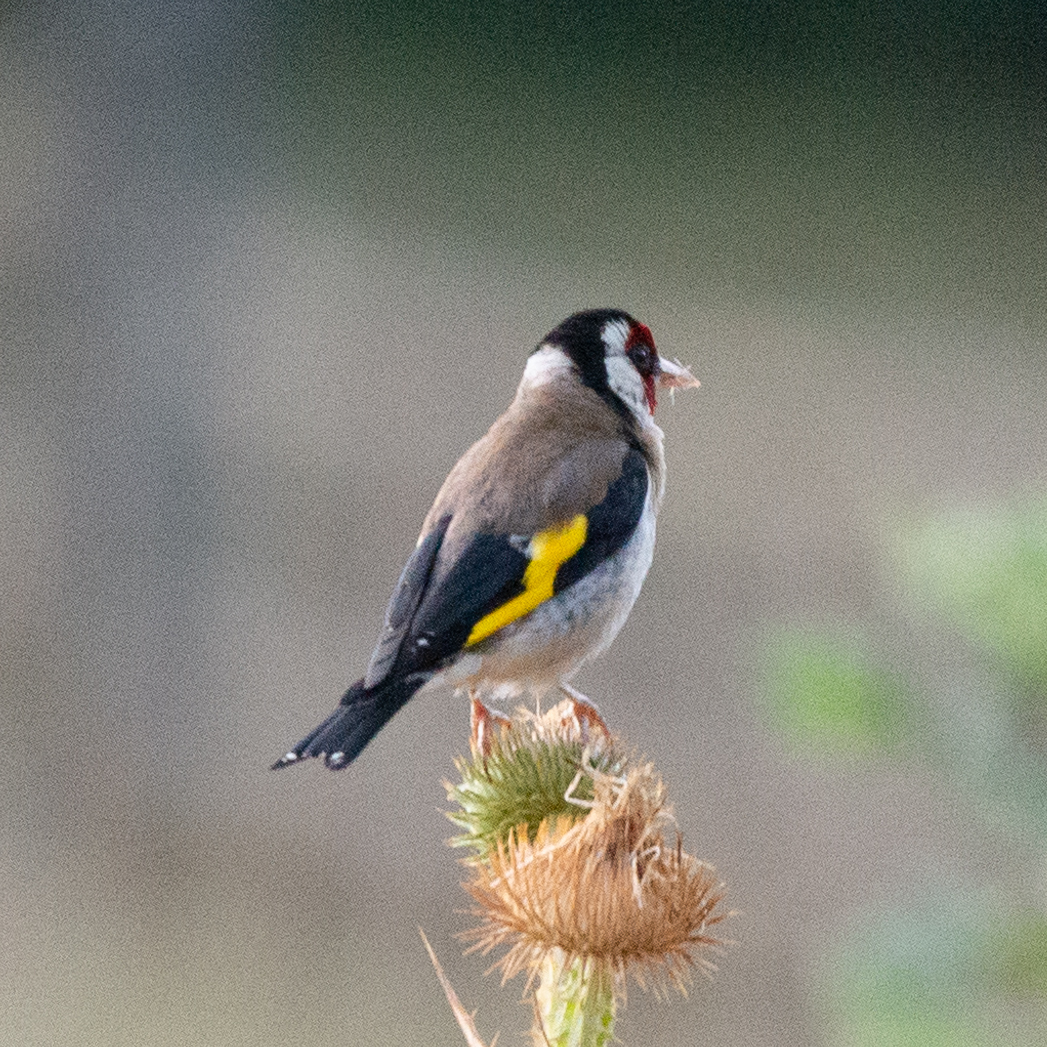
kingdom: Animalia
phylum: Chordata
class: Aves
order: Passeriformes
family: Fringillidae
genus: Carduelis
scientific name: Carduelis carduelis
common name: European goldfinch
